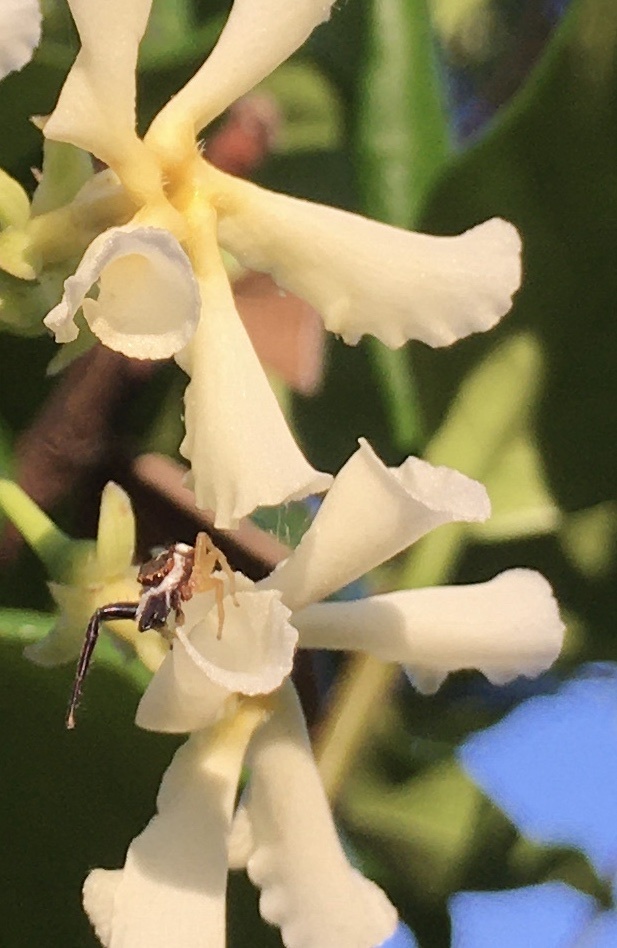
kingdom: Animalia
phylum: Arthropoda
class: Arachnida
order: Araneae
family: Salticidae
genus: Hentzia
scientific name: Hentzia palmarum
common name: Common hentz jumping spider
